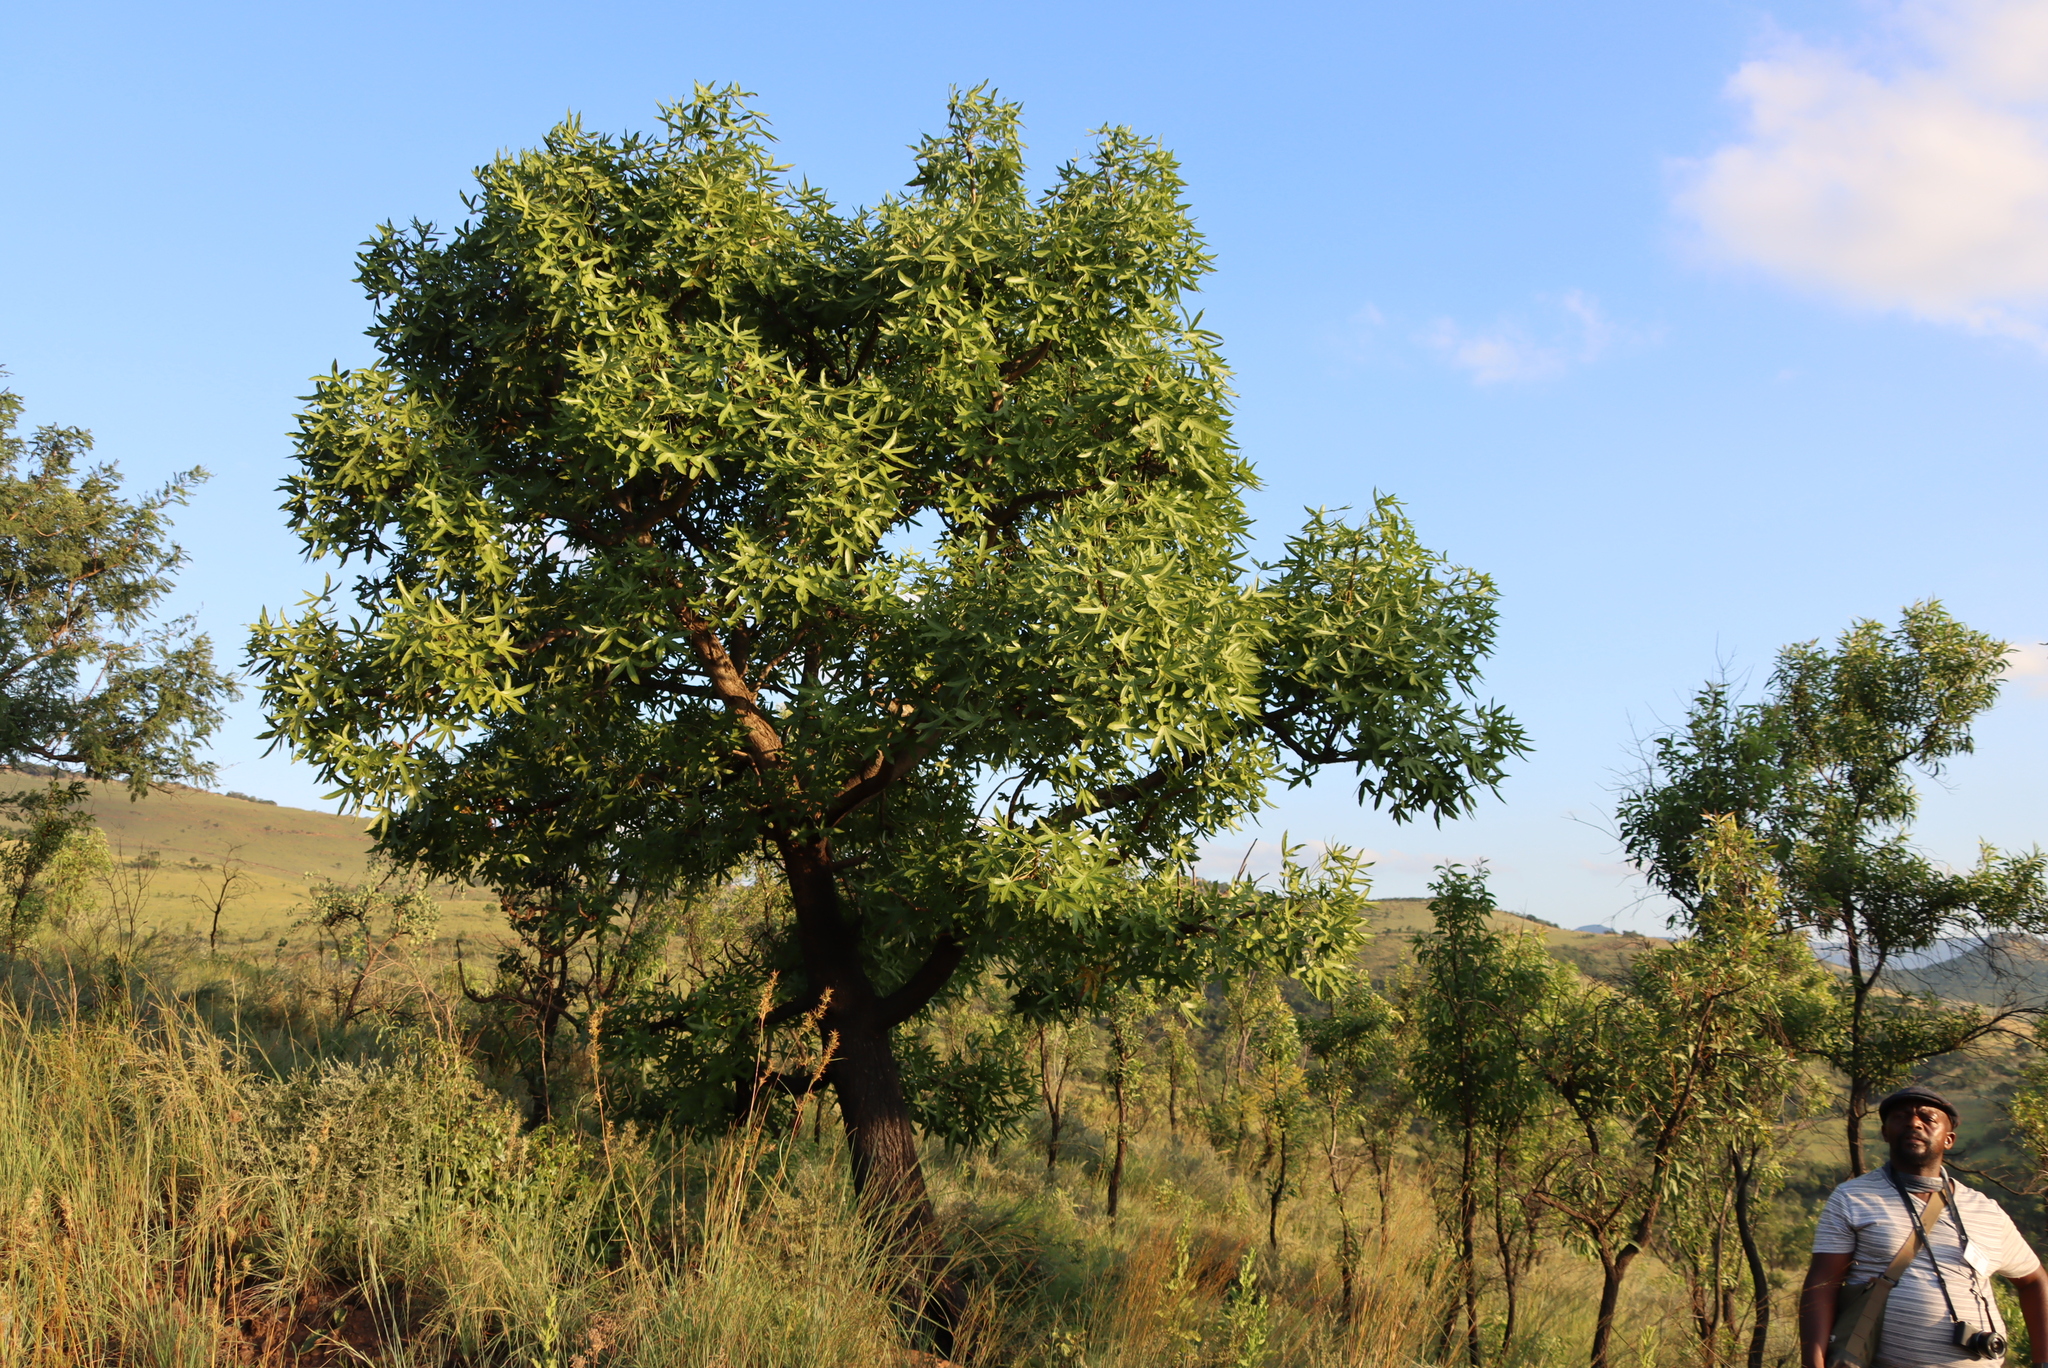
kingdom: Plantae
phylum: Tracheophyta
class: Magnoliopsida
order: Apiales
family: Araliaceae
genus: Cussonia
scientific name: Cussonia natalensis
